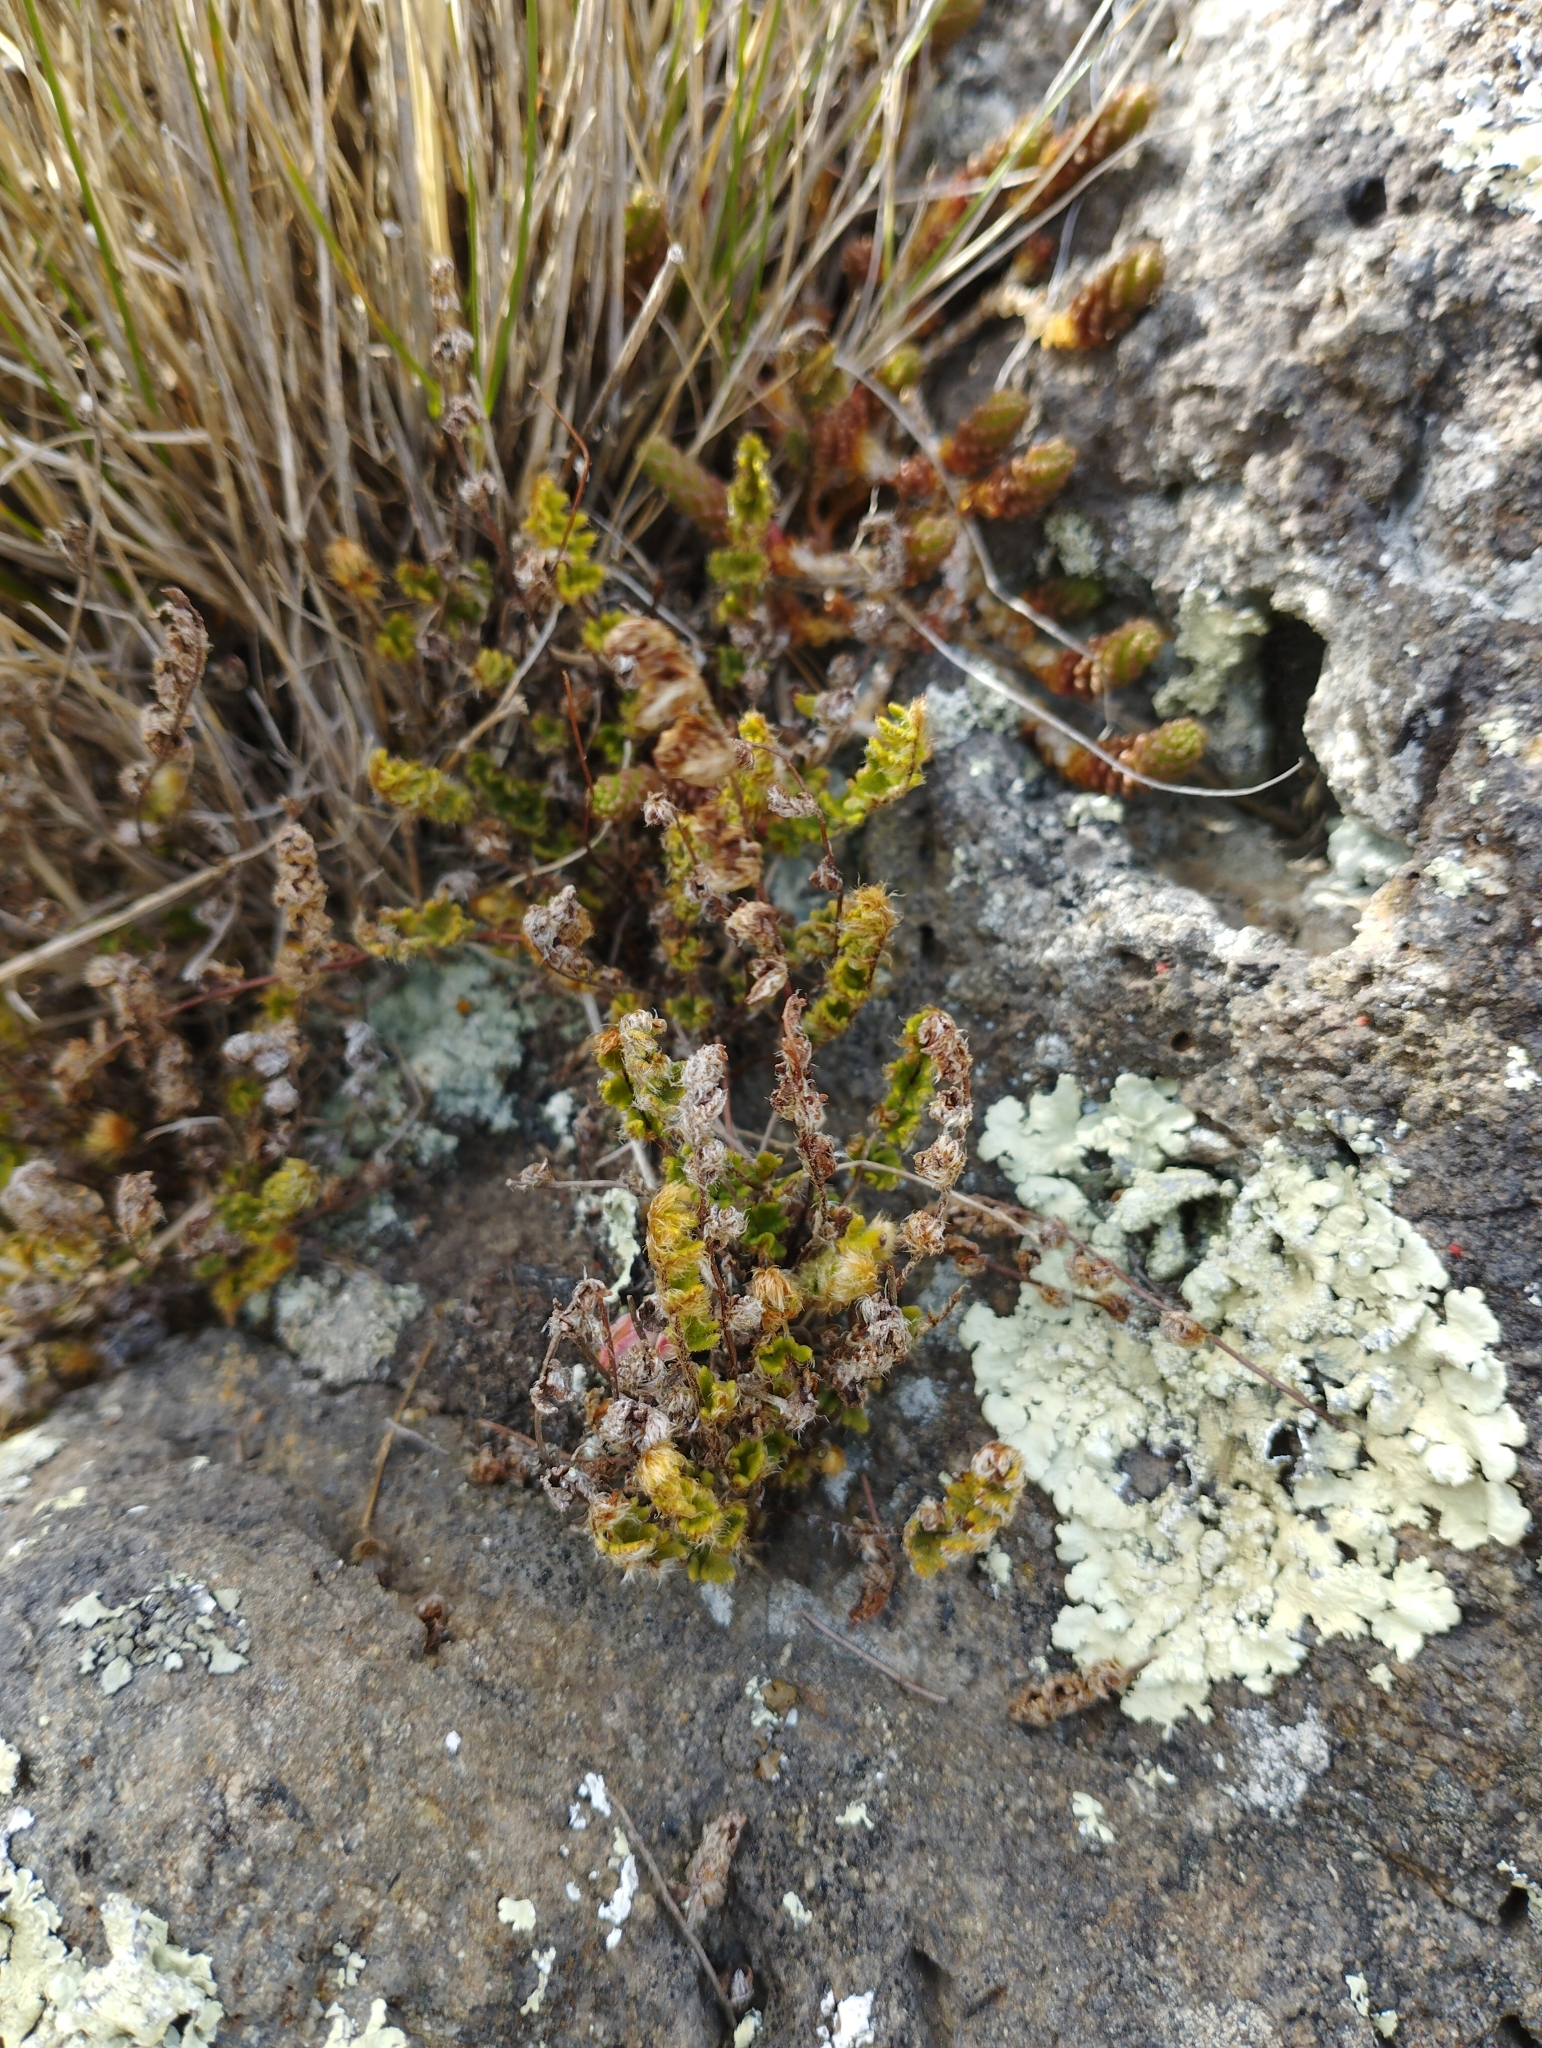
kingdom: Plantae
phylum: Tracheophyta
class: Polypodiopsida
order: Polypodiales
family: Pteridaceae
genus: Cheilanthes
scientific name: Cheilanthes distans
